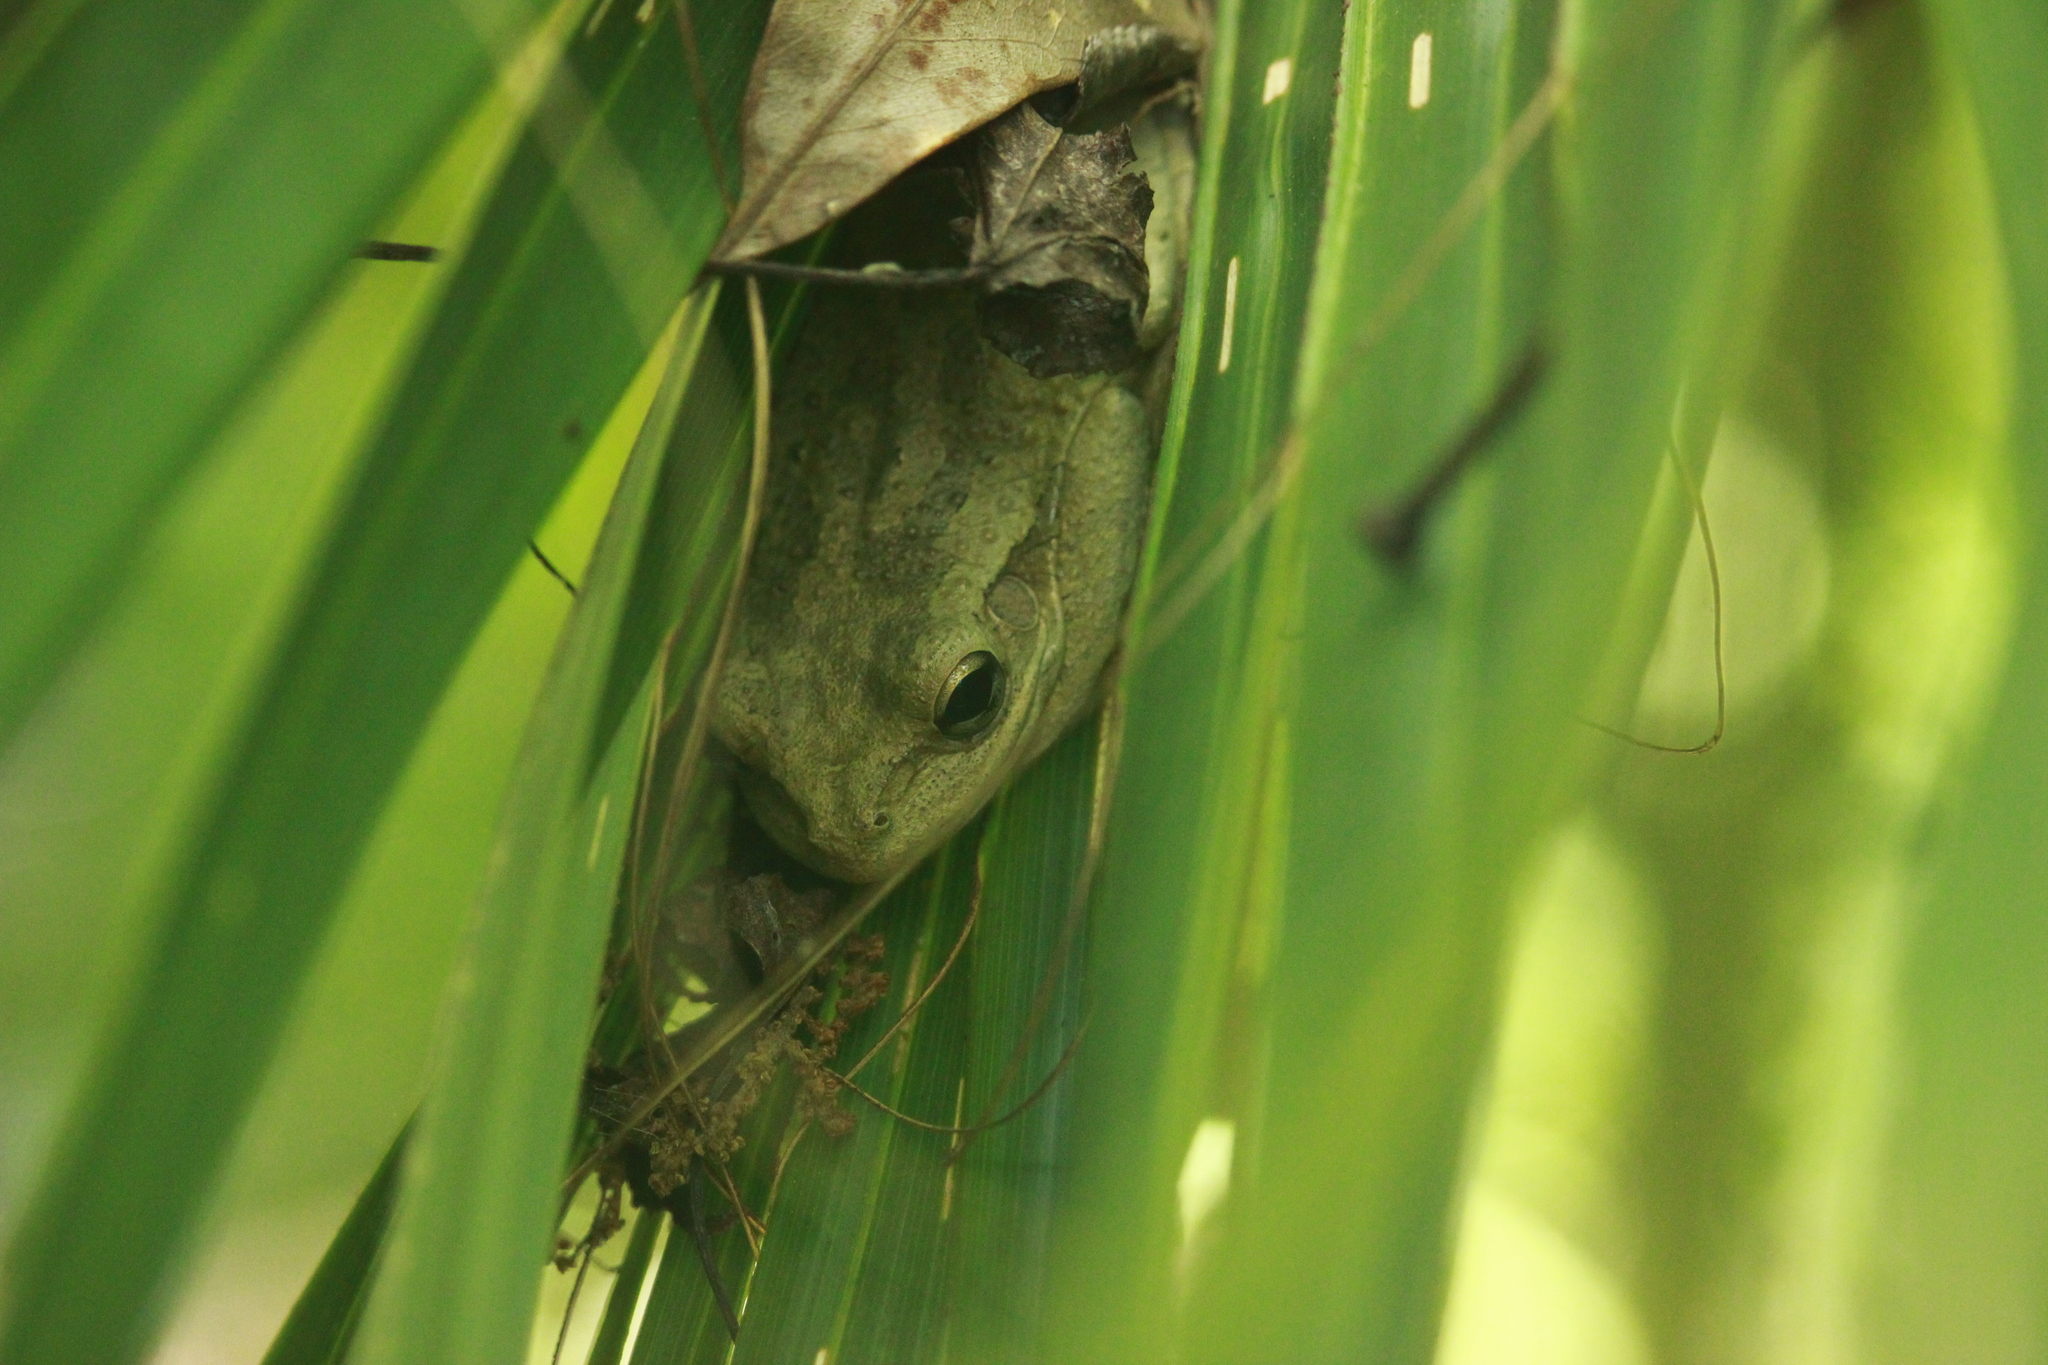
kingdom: Animalia
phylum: Chordata
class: Amphibia
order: Anura
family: Hylidae
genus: Osteopilus
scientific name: Osteopilus septentrionalis
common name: Cuban treefrog
